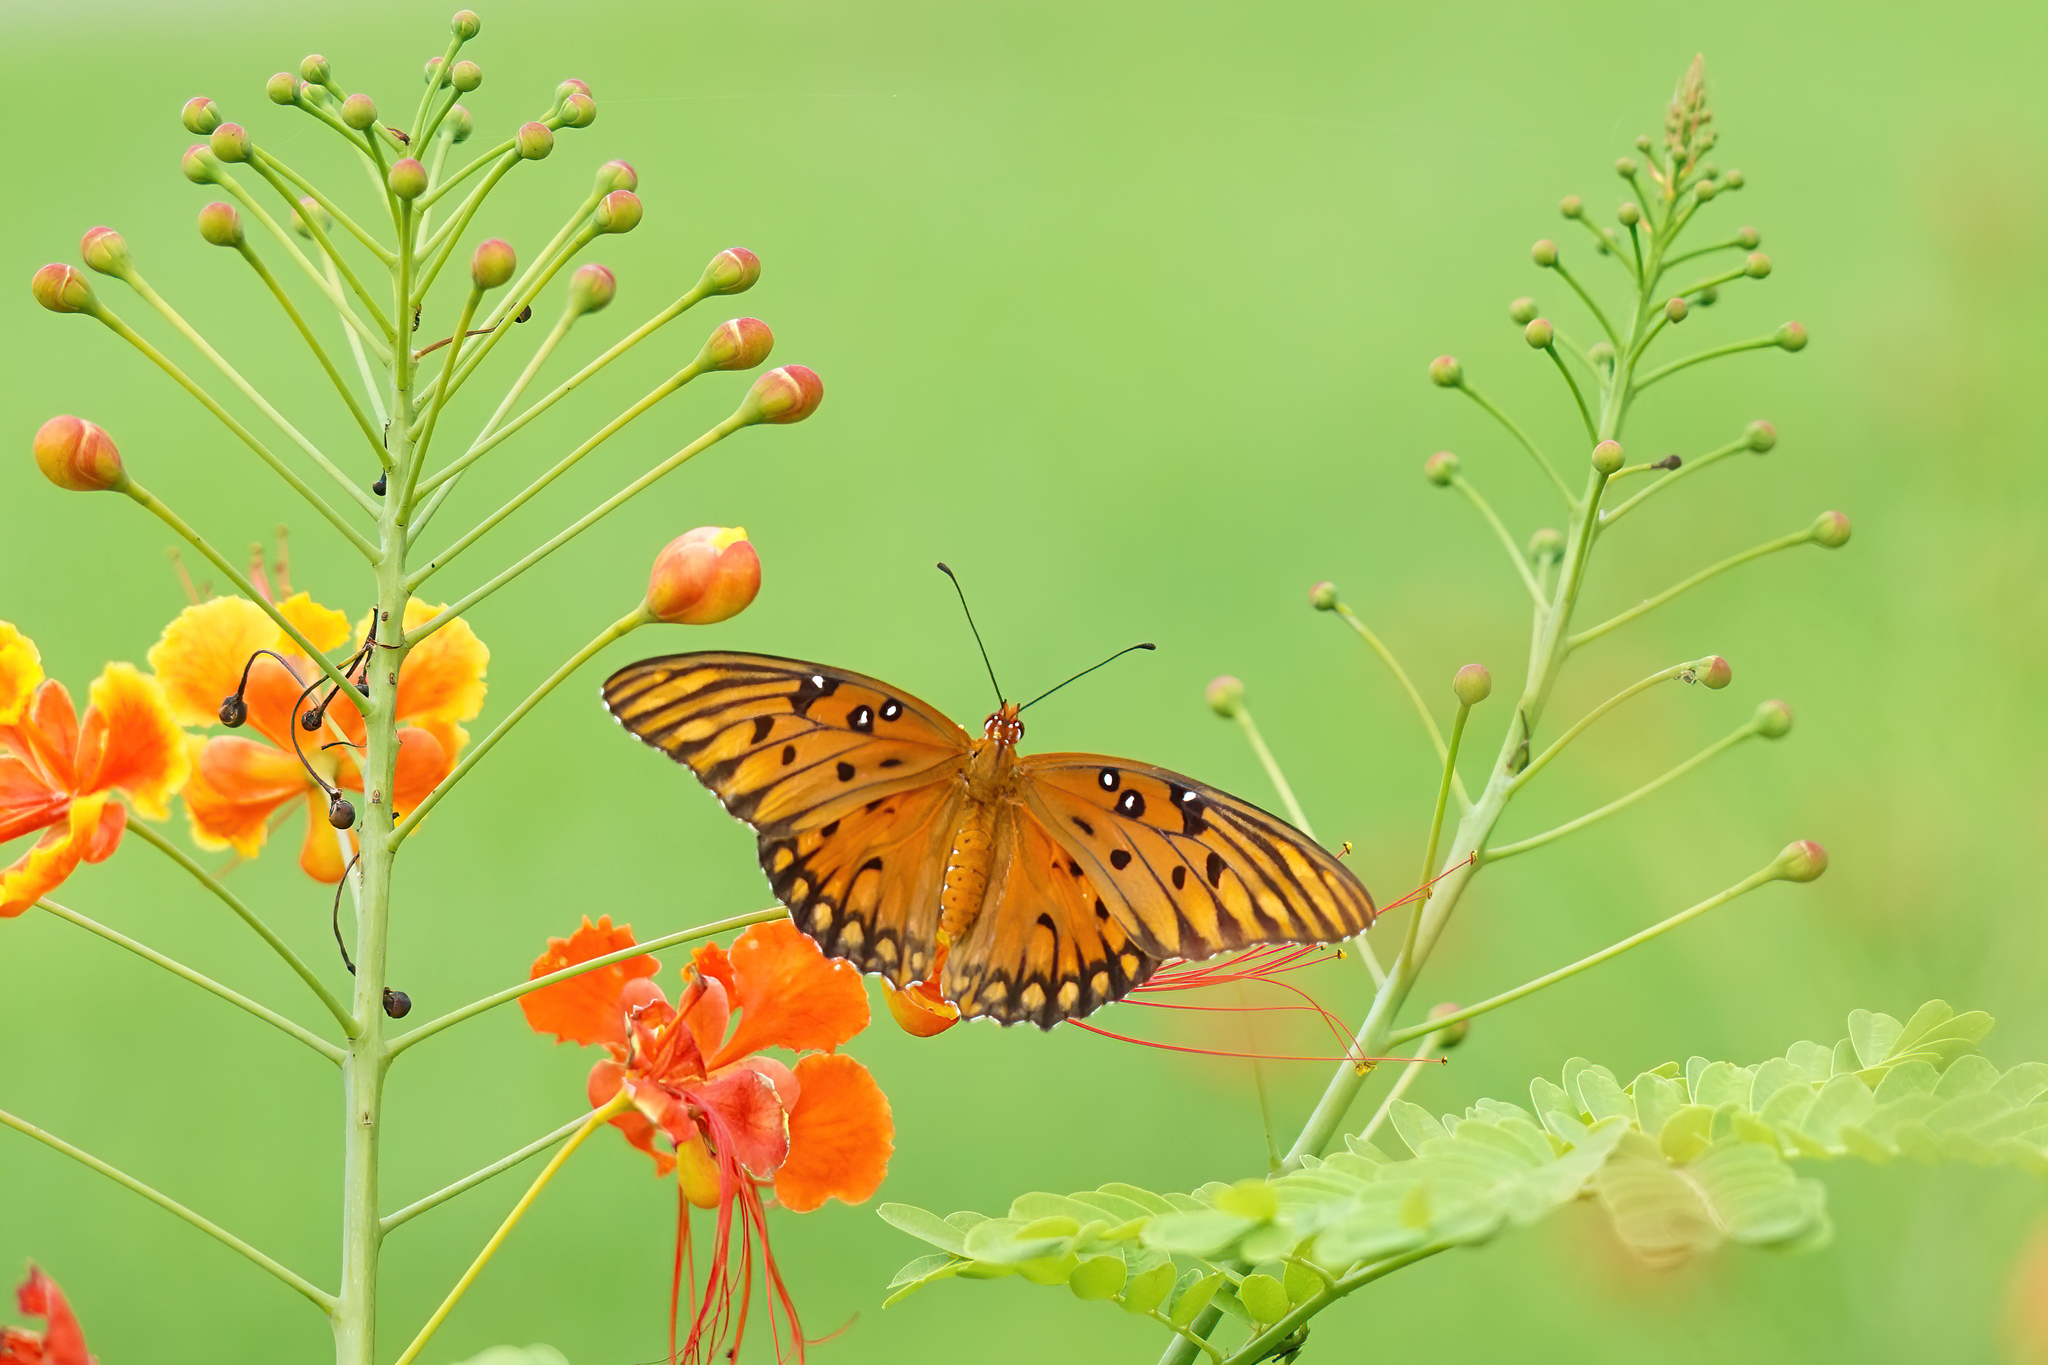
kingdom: Animalia
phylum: Arthropoda
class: Insecta
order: Lepidoptera
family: Nymphalidae
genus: Dione
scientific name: Dione vanillae
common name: Gulf fritillary
